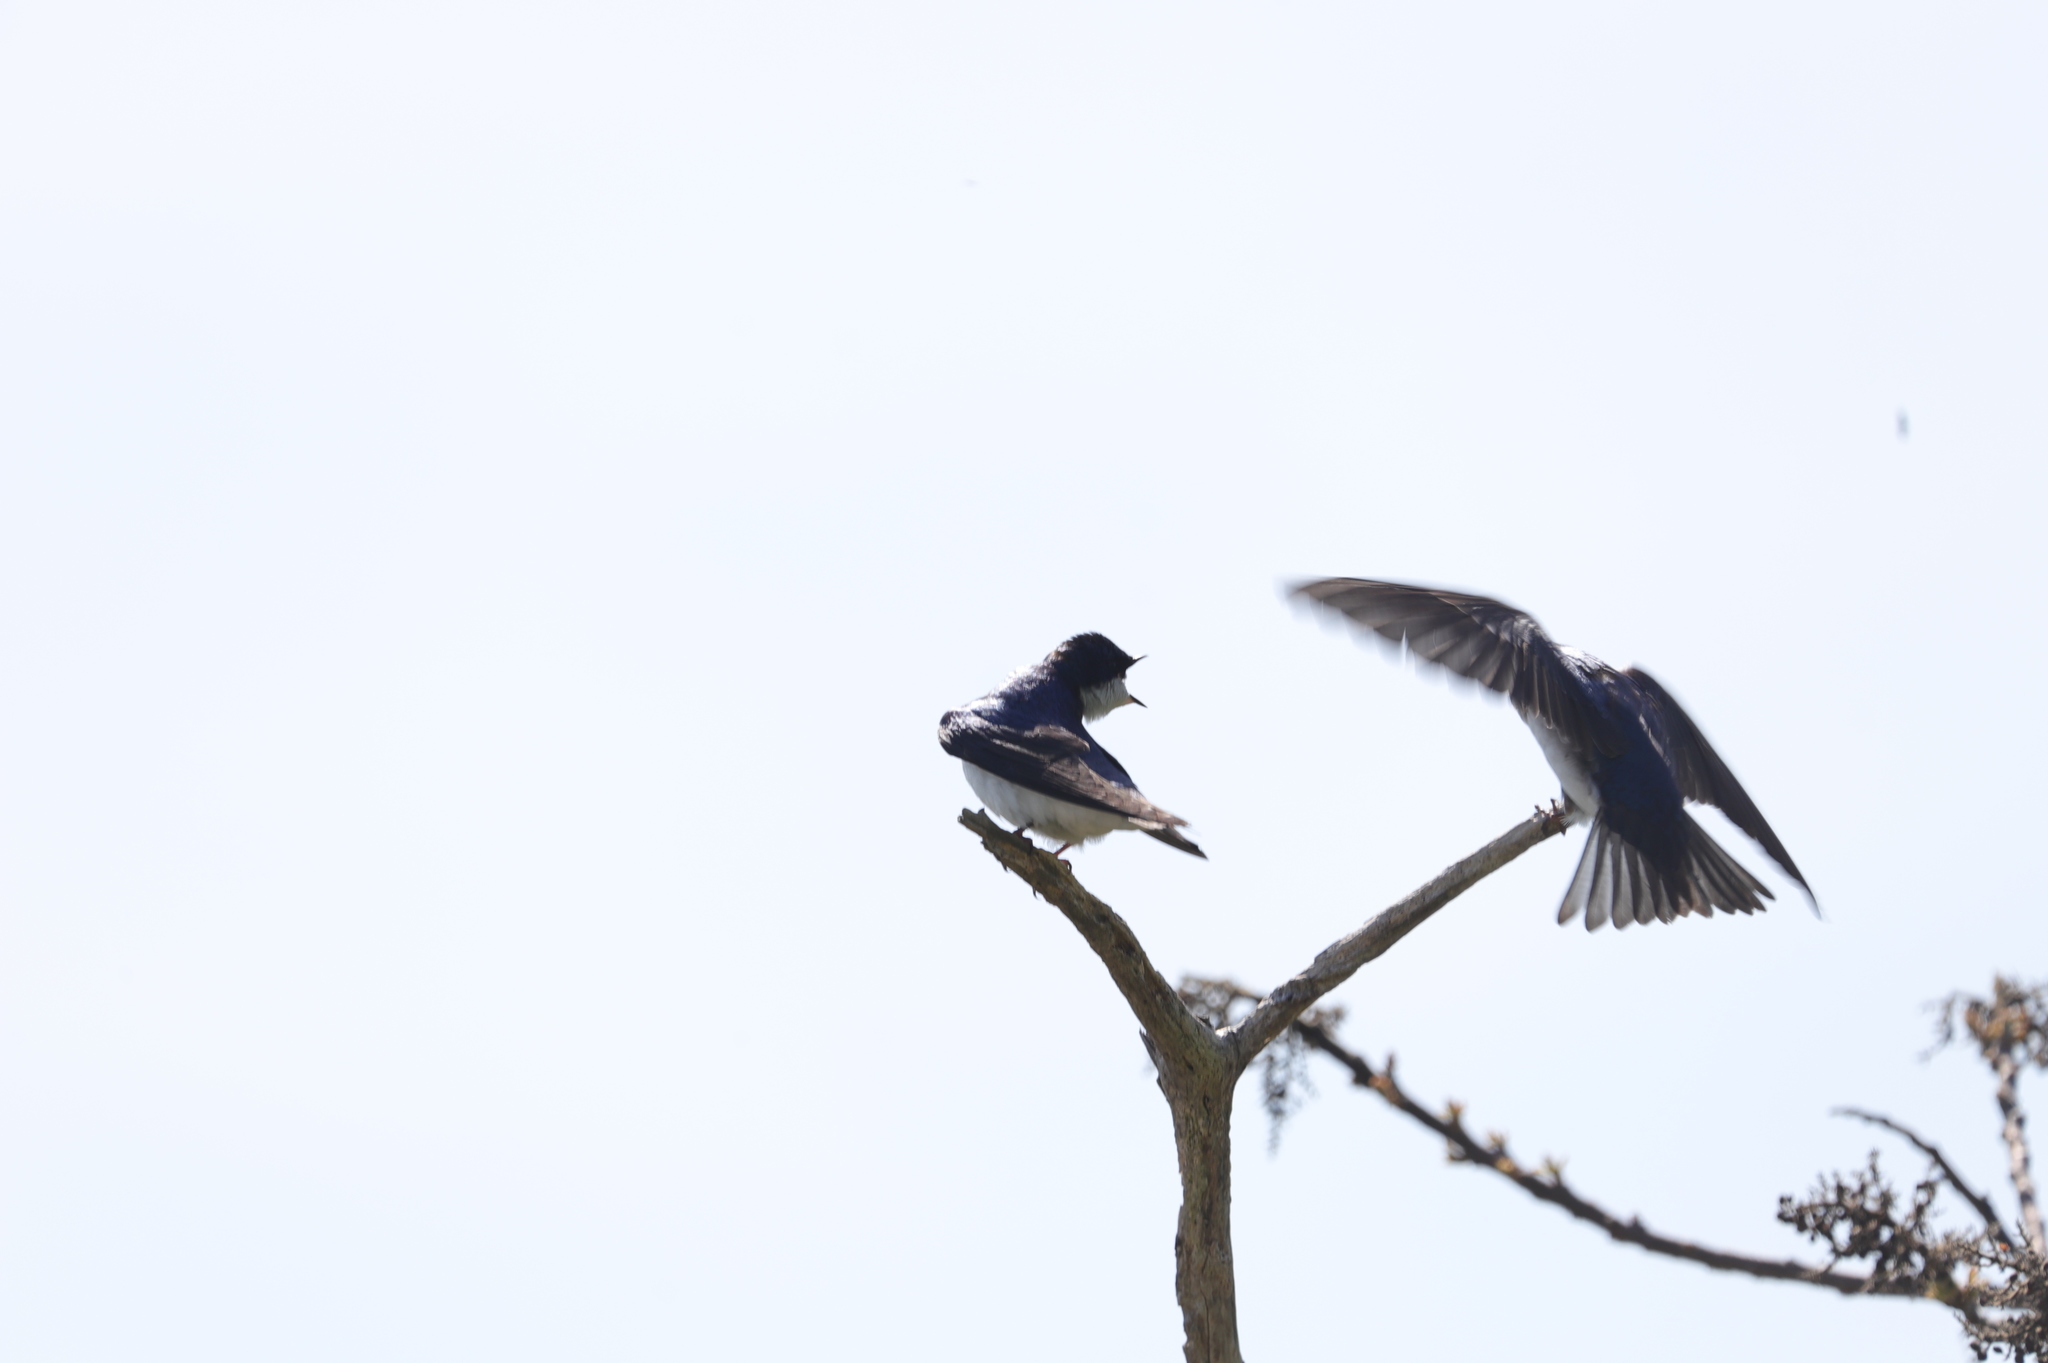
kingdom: Animalia
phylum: Chordata
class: Aves
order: Passeriformes
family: Hirundinidae
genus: Tachycineta
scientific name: Tachycineta bicolor
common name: Tree swallow
